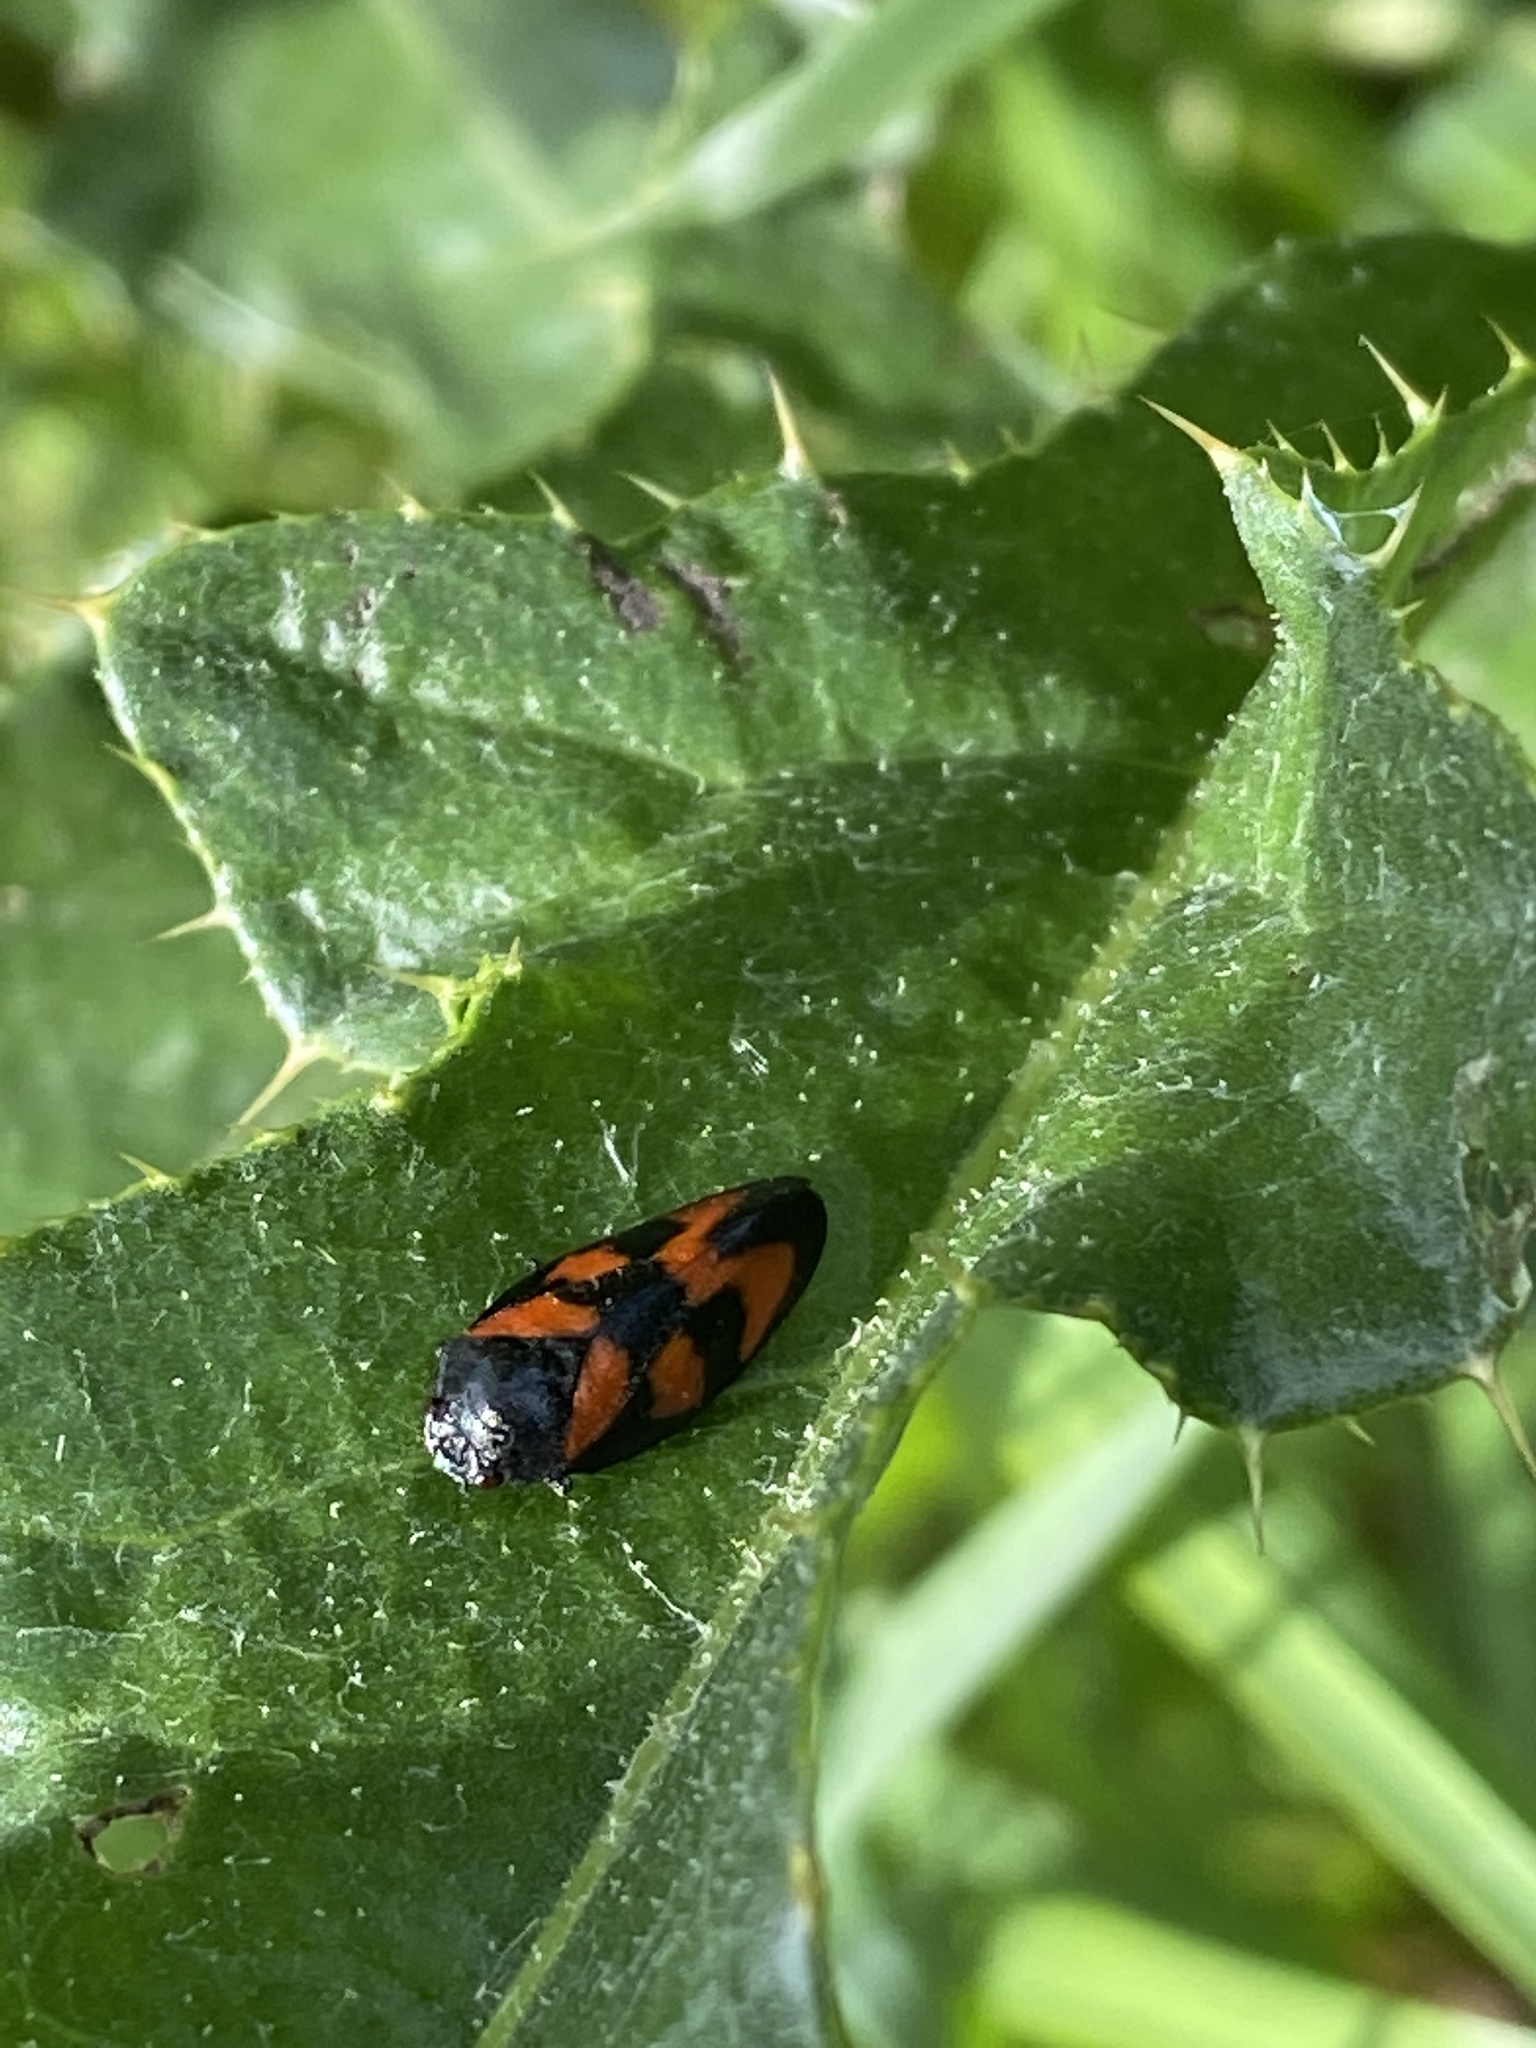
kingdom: Animalia
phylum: Arthropoda
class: Insecta
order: Hemiptera
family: Cercopidae
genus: Cercopis
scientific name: Cercopis vulnerata
